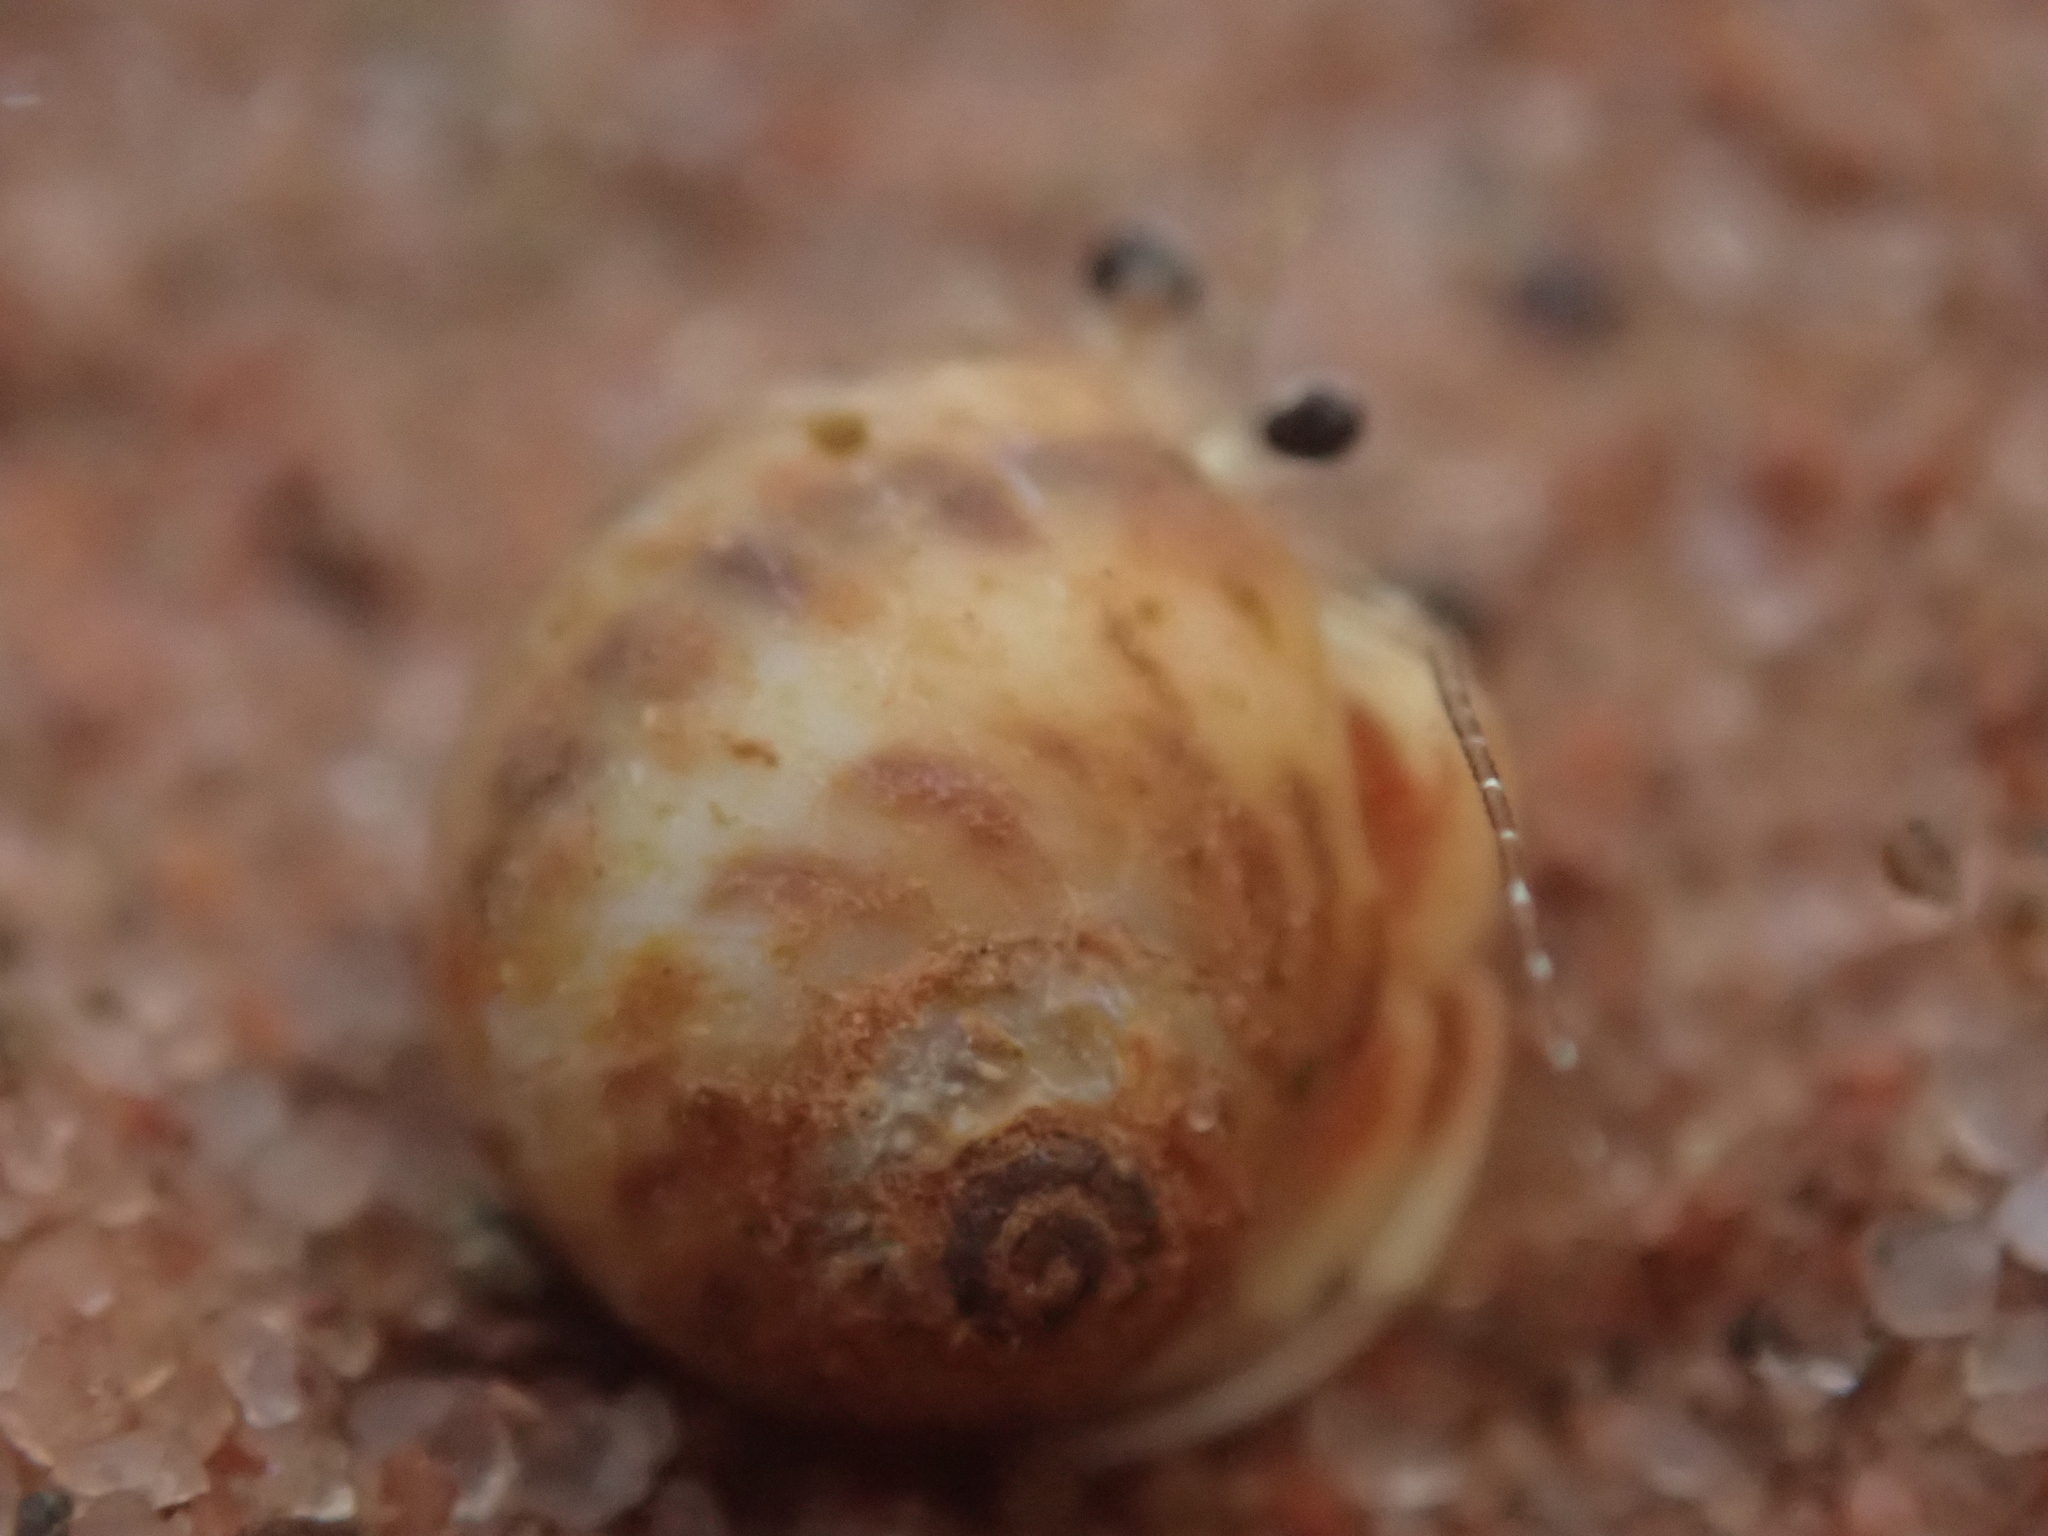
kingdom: Animalia
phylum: Mollusca
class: Gastropoda
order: Littorinimorpha
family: Naticidae
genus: Euspira
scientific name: Euspira triseriata
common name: Spotted moonsnail
